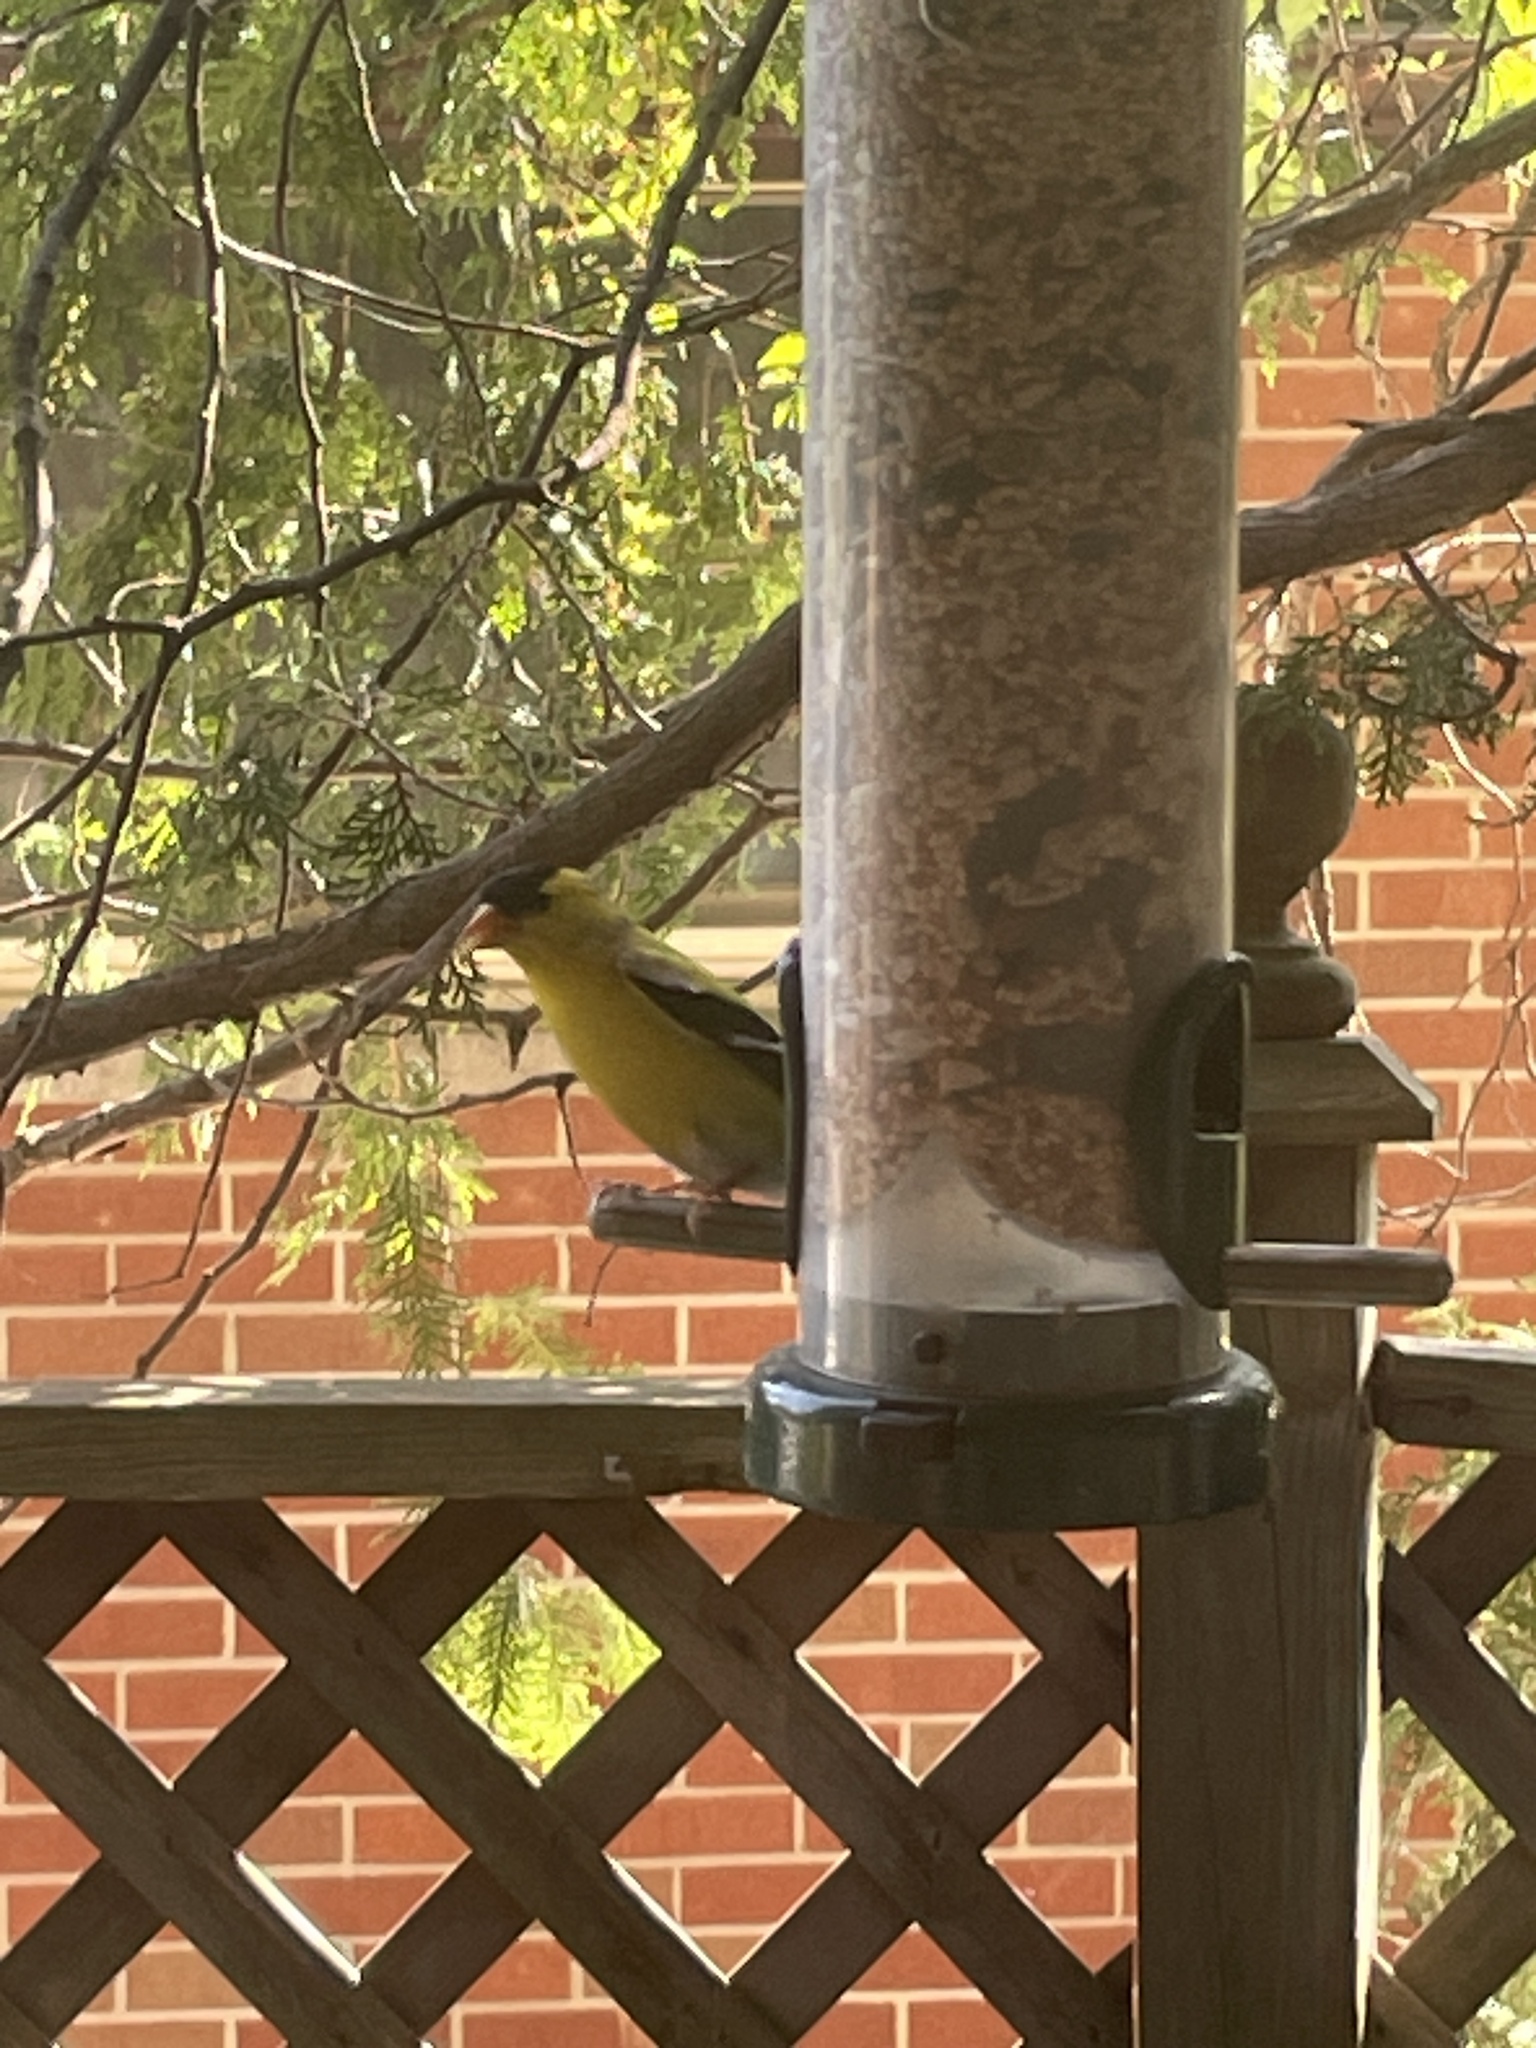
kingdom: Animalia
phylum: Chordata
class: Aves
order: Passeriformes
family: Fringillidae
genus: Spinus
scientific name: Spinus tristis
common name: American goldfinch
